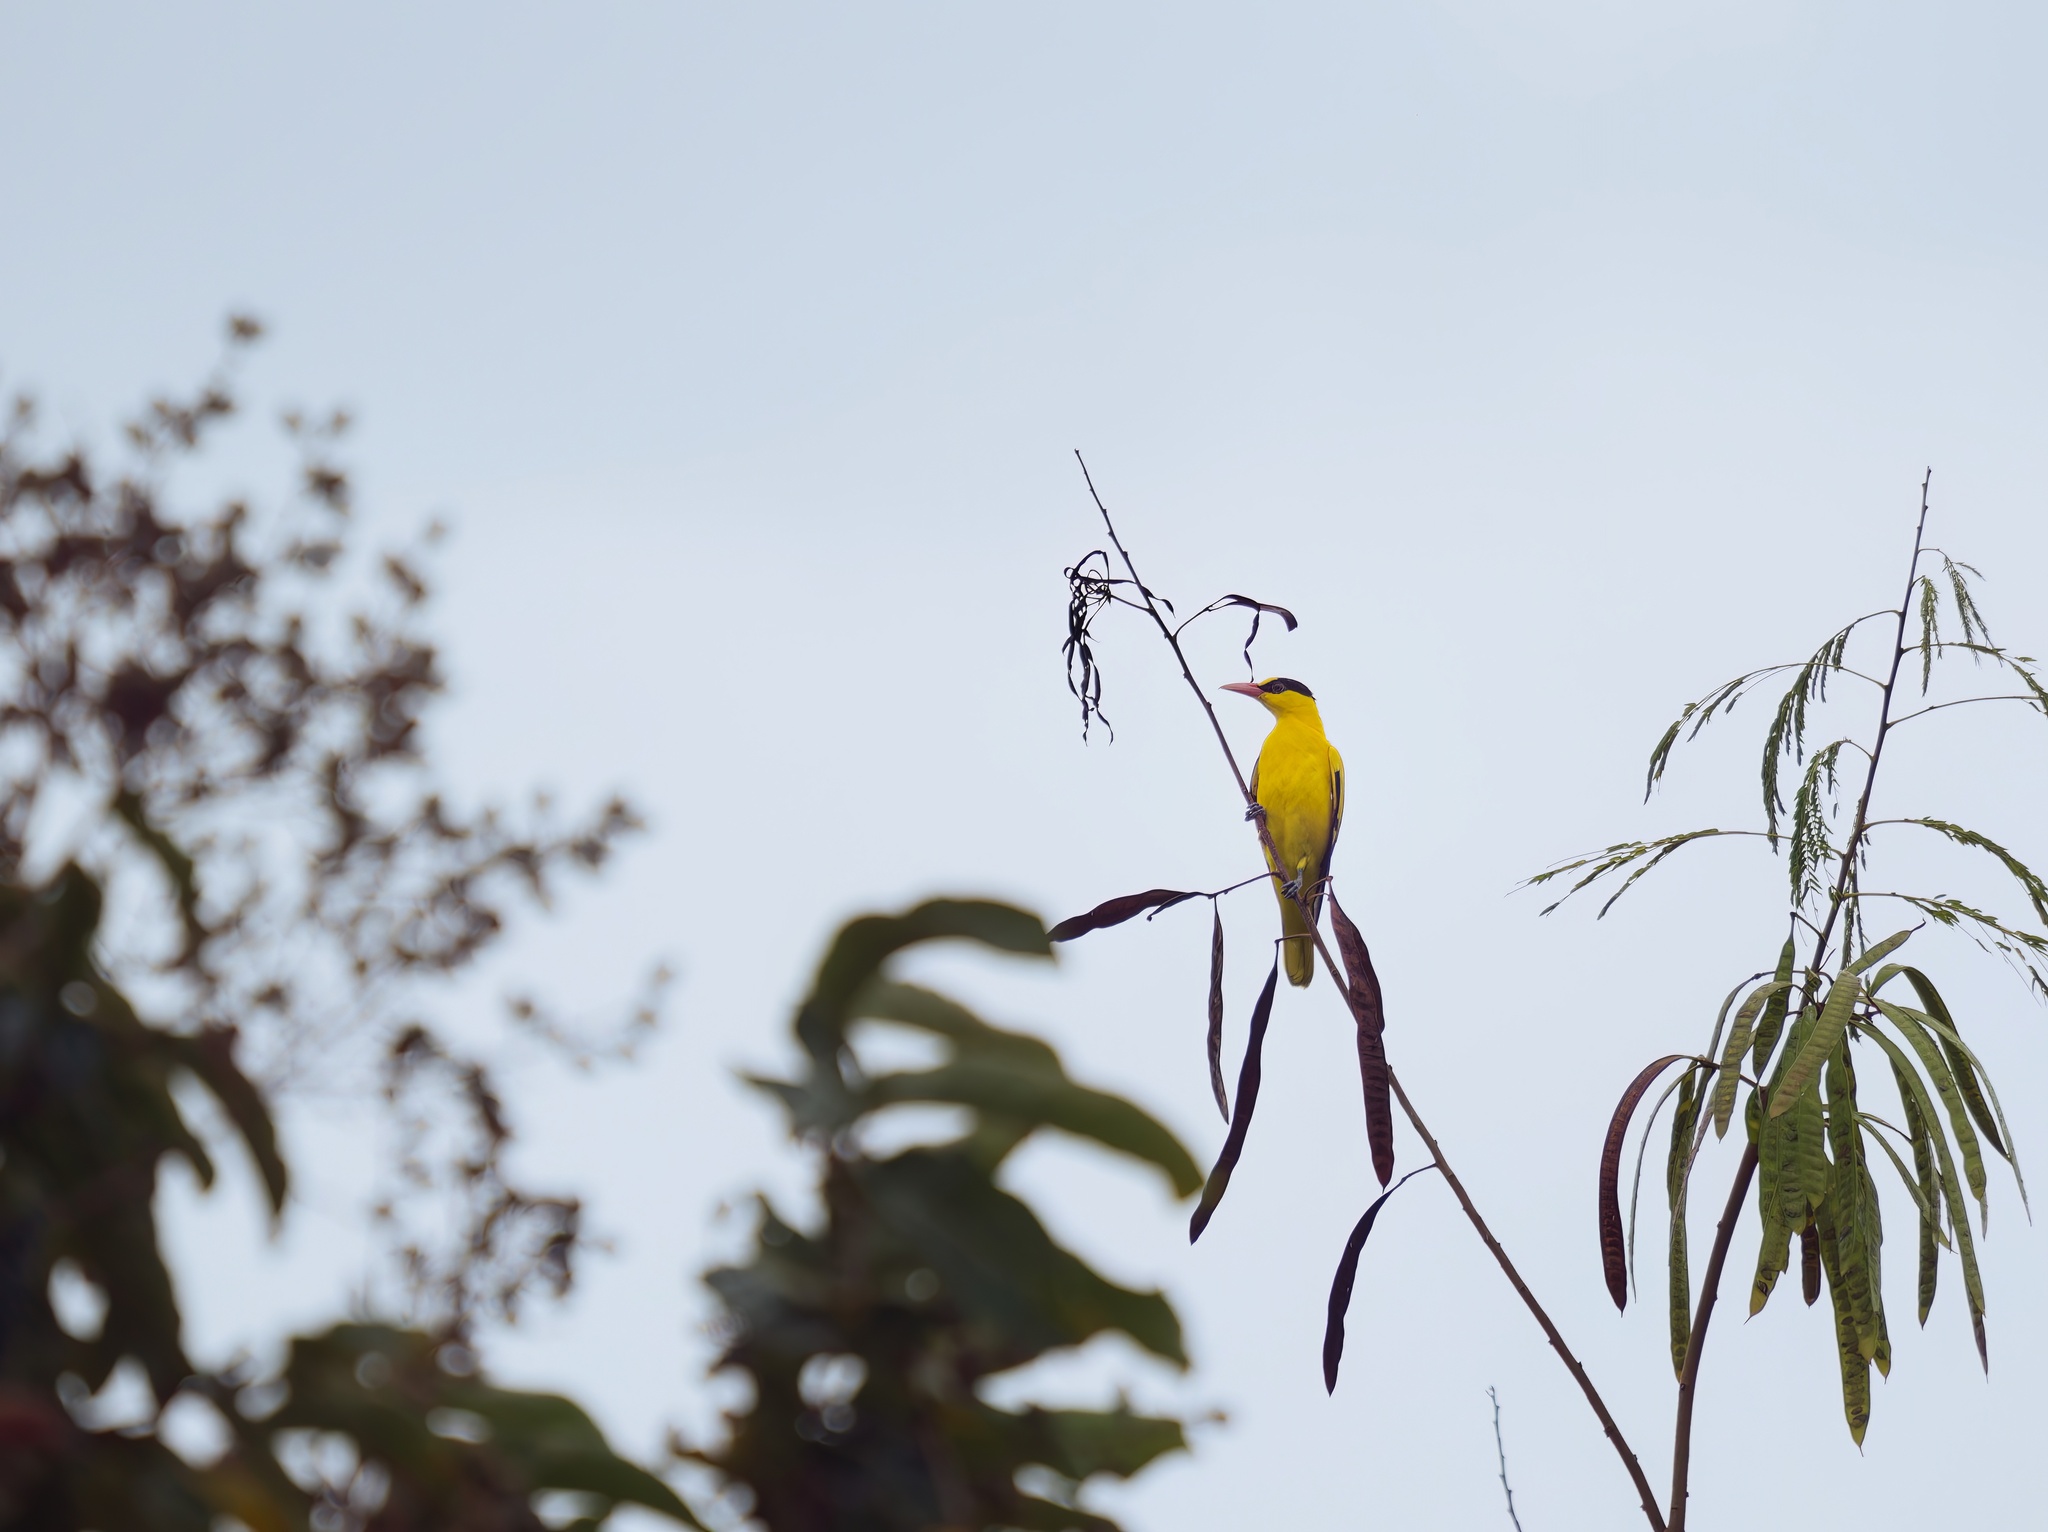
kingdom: Animalia
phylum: Chordata
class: Aves
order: Passeriformes
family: Oriolidae
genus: Oriolus
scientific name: Oriolus chinensis
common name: Black-naped oriole
